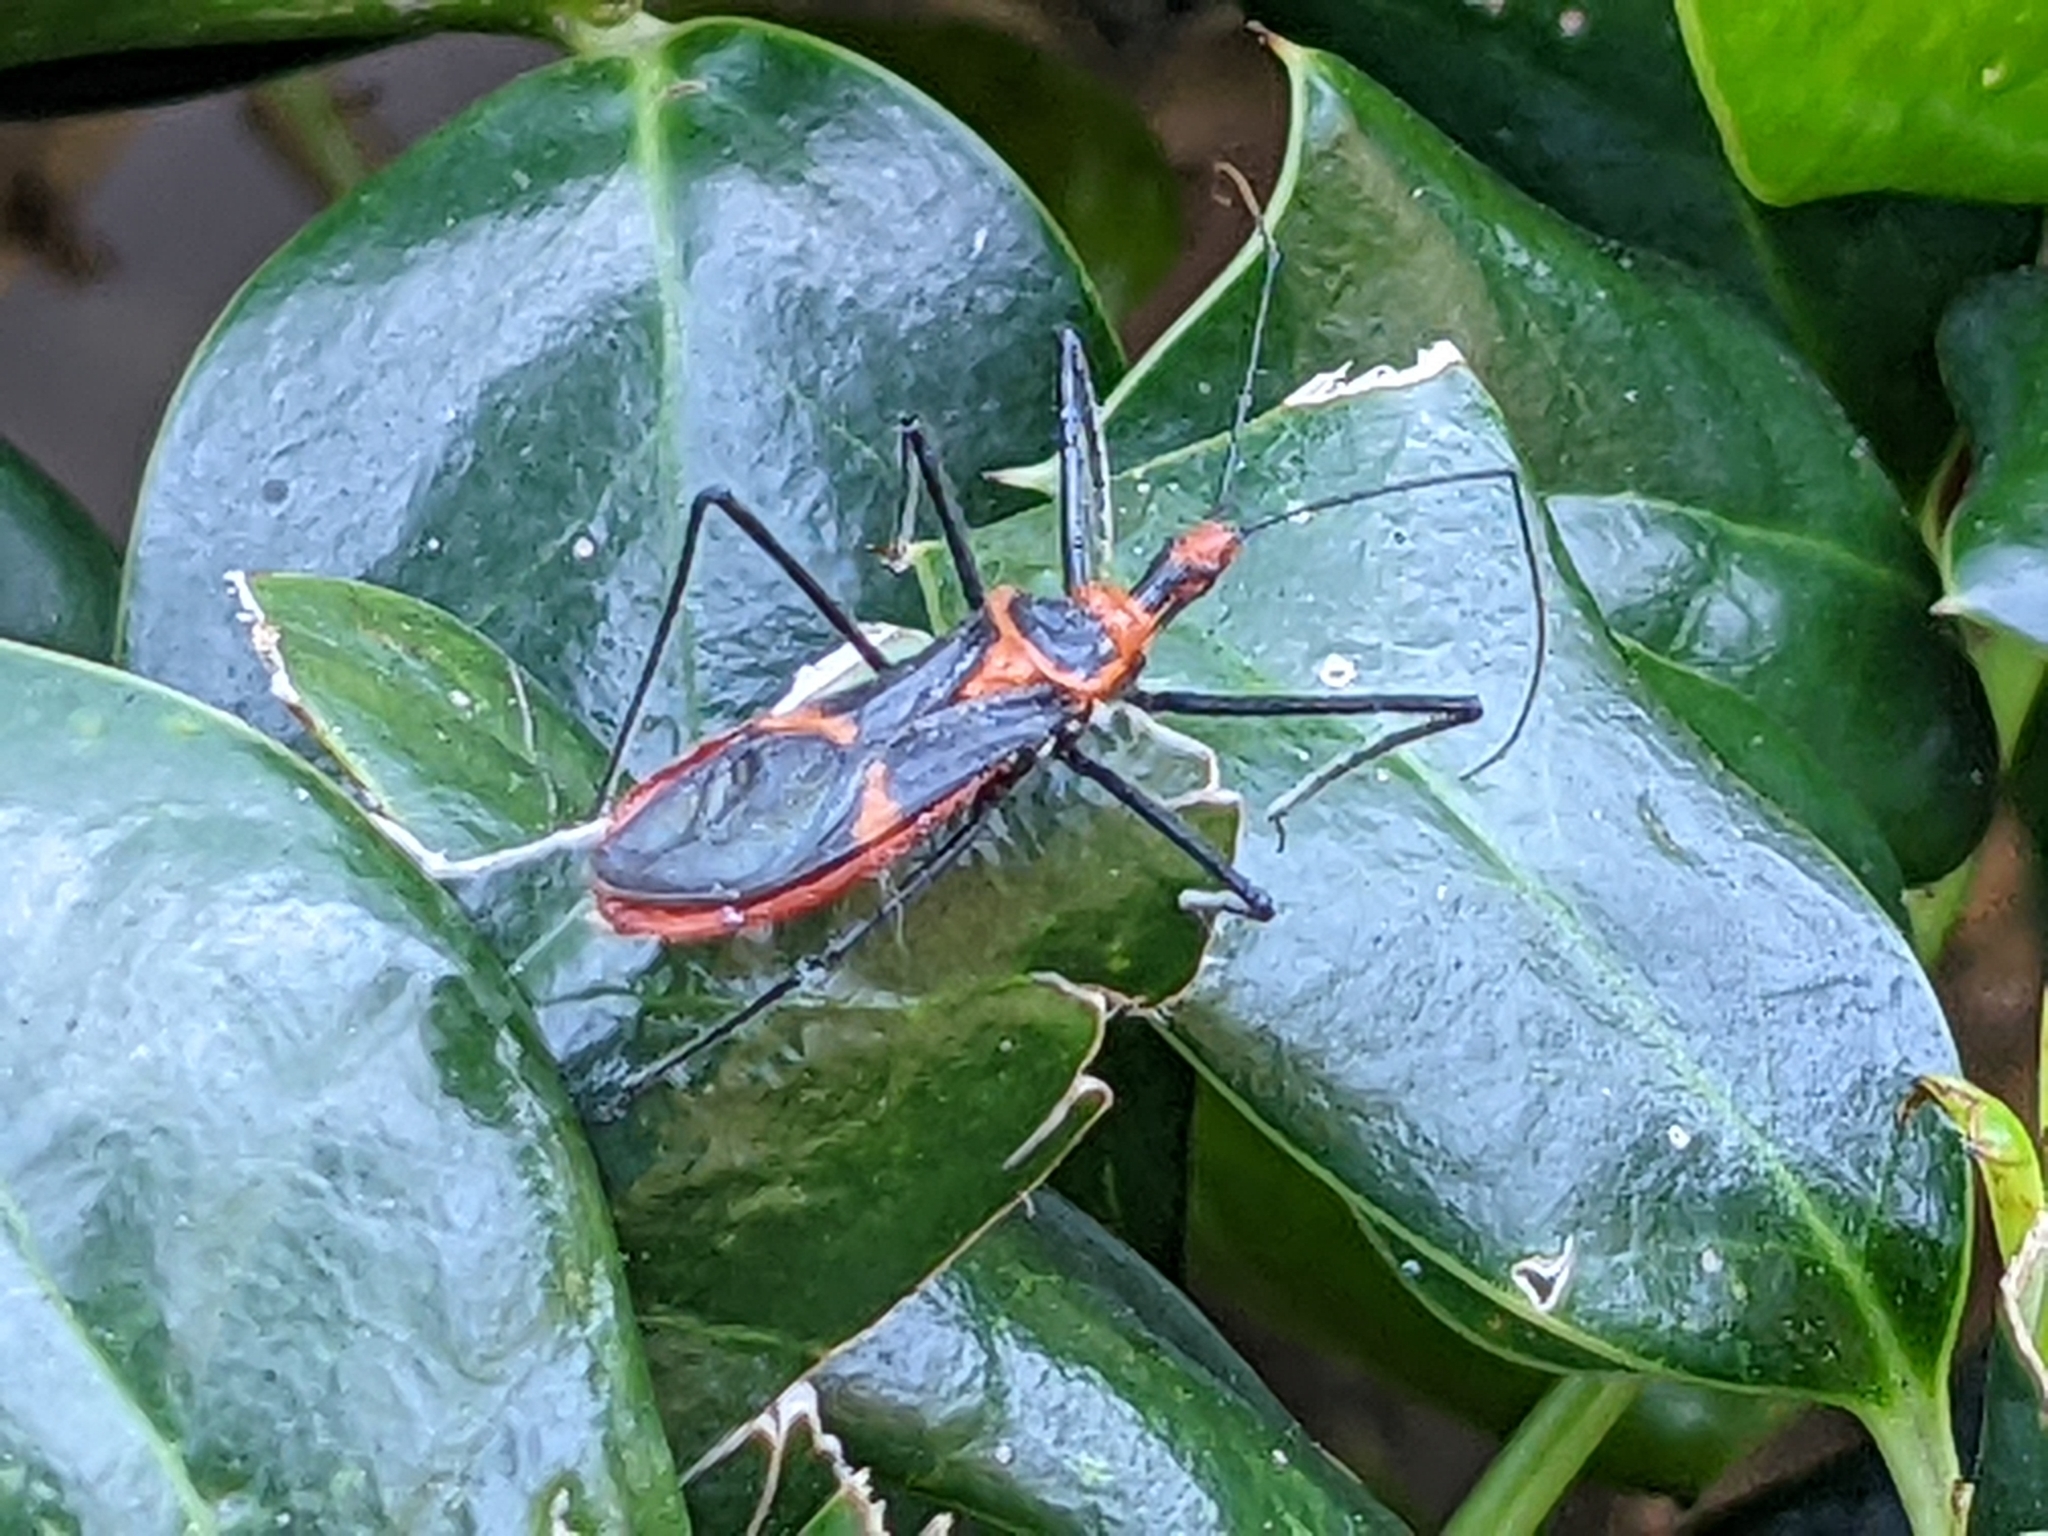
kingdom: Animalia
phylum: Arthropoda
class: Insecta
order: Hemiptera
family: Reduviidae
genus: Zelus
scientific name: Zelus longipes
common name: Milkweed assassin bug
